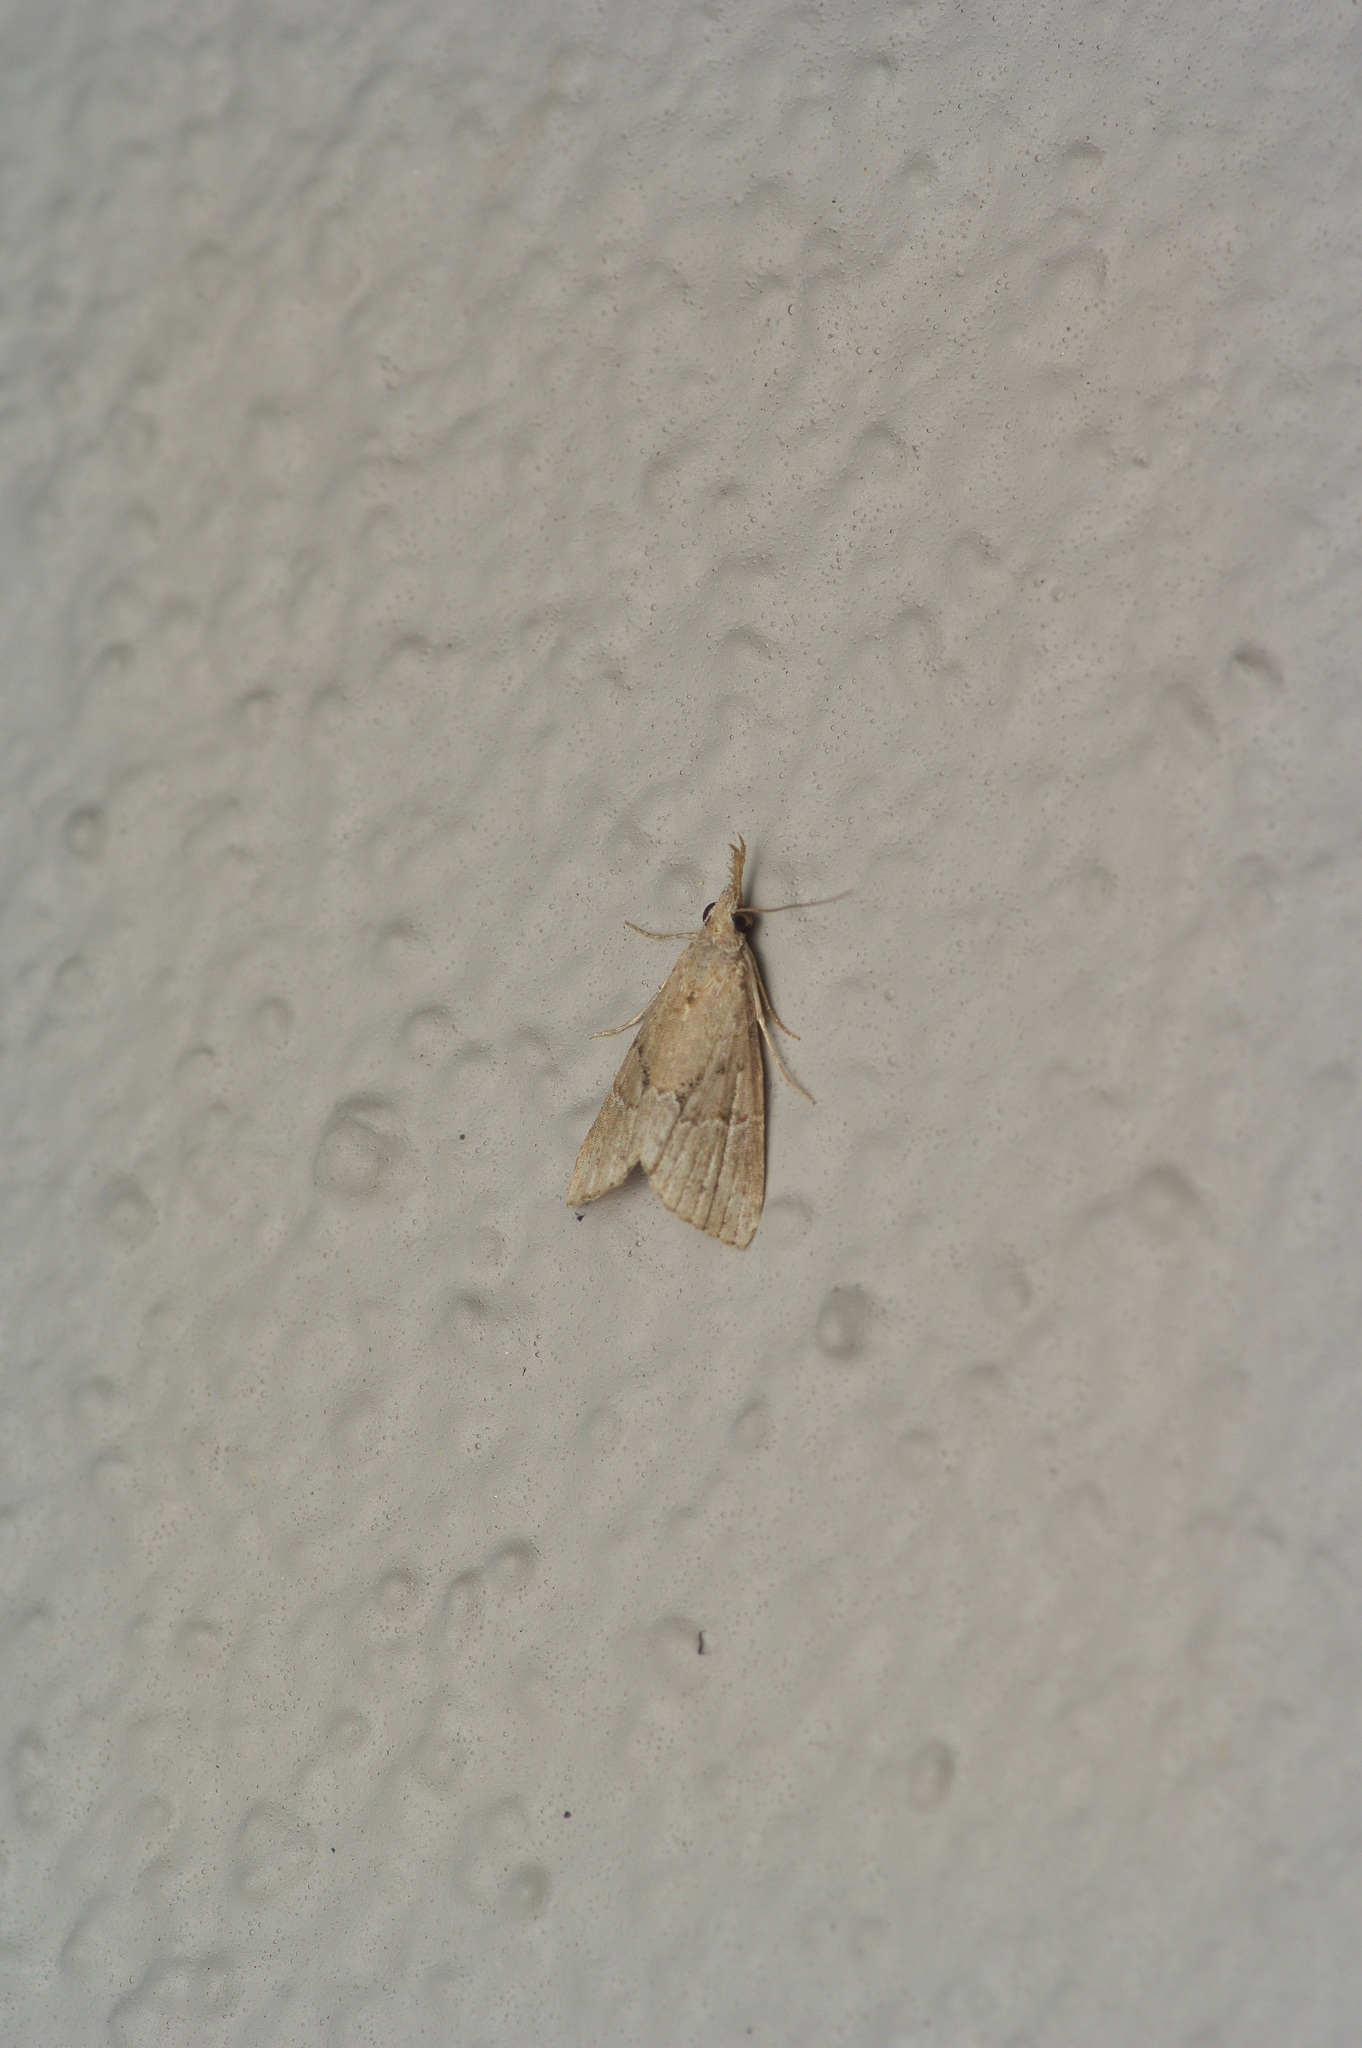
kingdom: Animalia
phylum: Arthropoda
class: Insecta
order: Lepidoptera
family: Erebidae
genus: Hypena
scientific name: Hypena minualis
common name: Sooty snout
